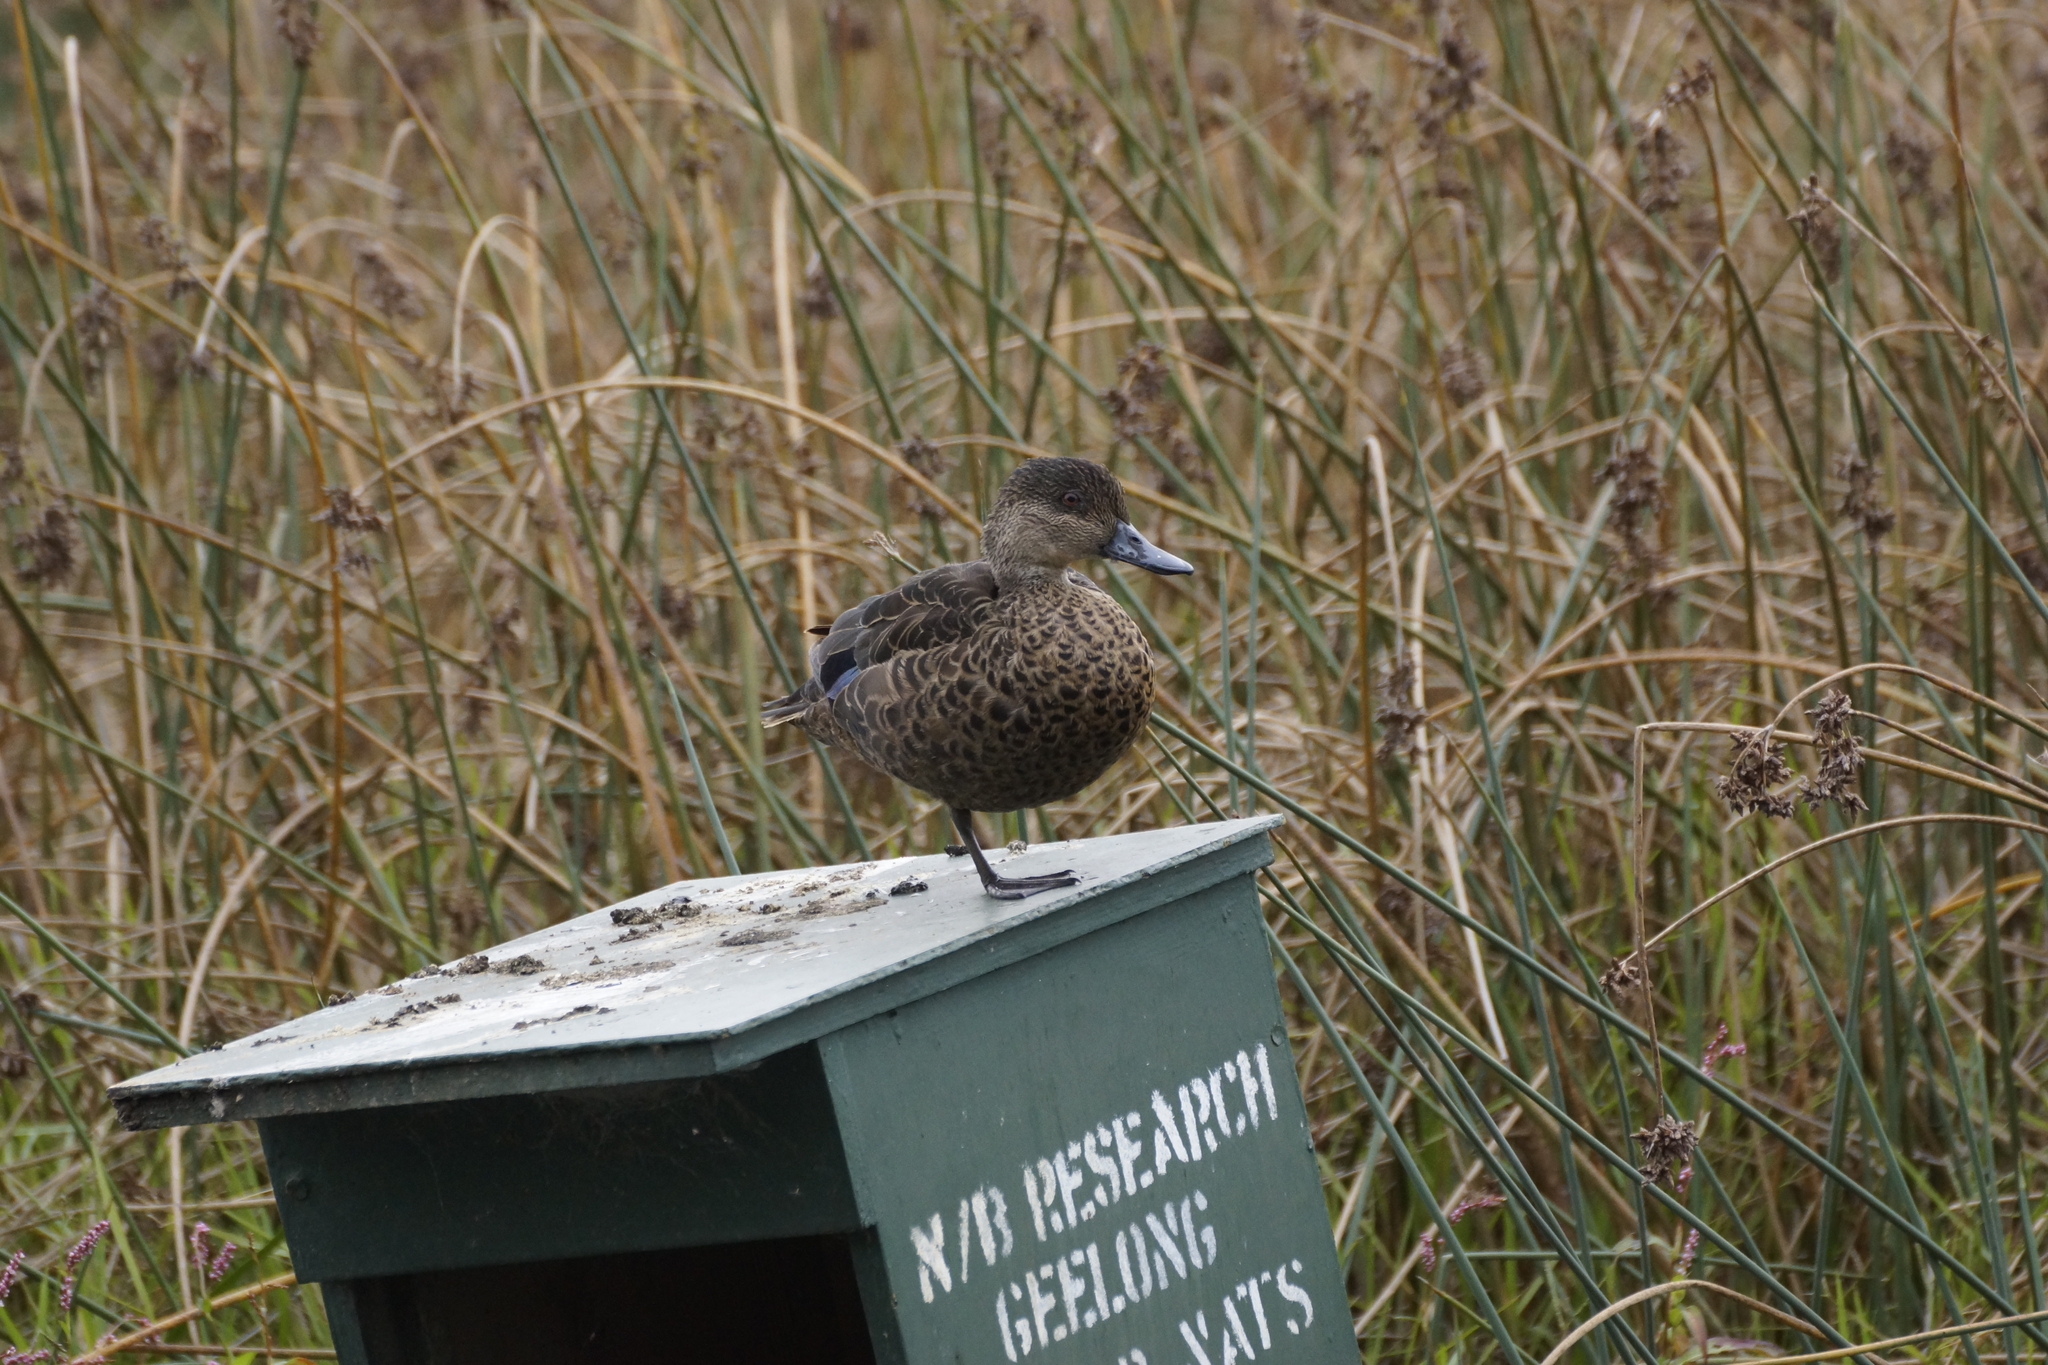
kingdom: Animalia
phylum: Chordata
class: Aves
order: Anseriformes
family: Anatidae
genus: Anas
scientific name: Anas castanea
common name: Chestnut teal
